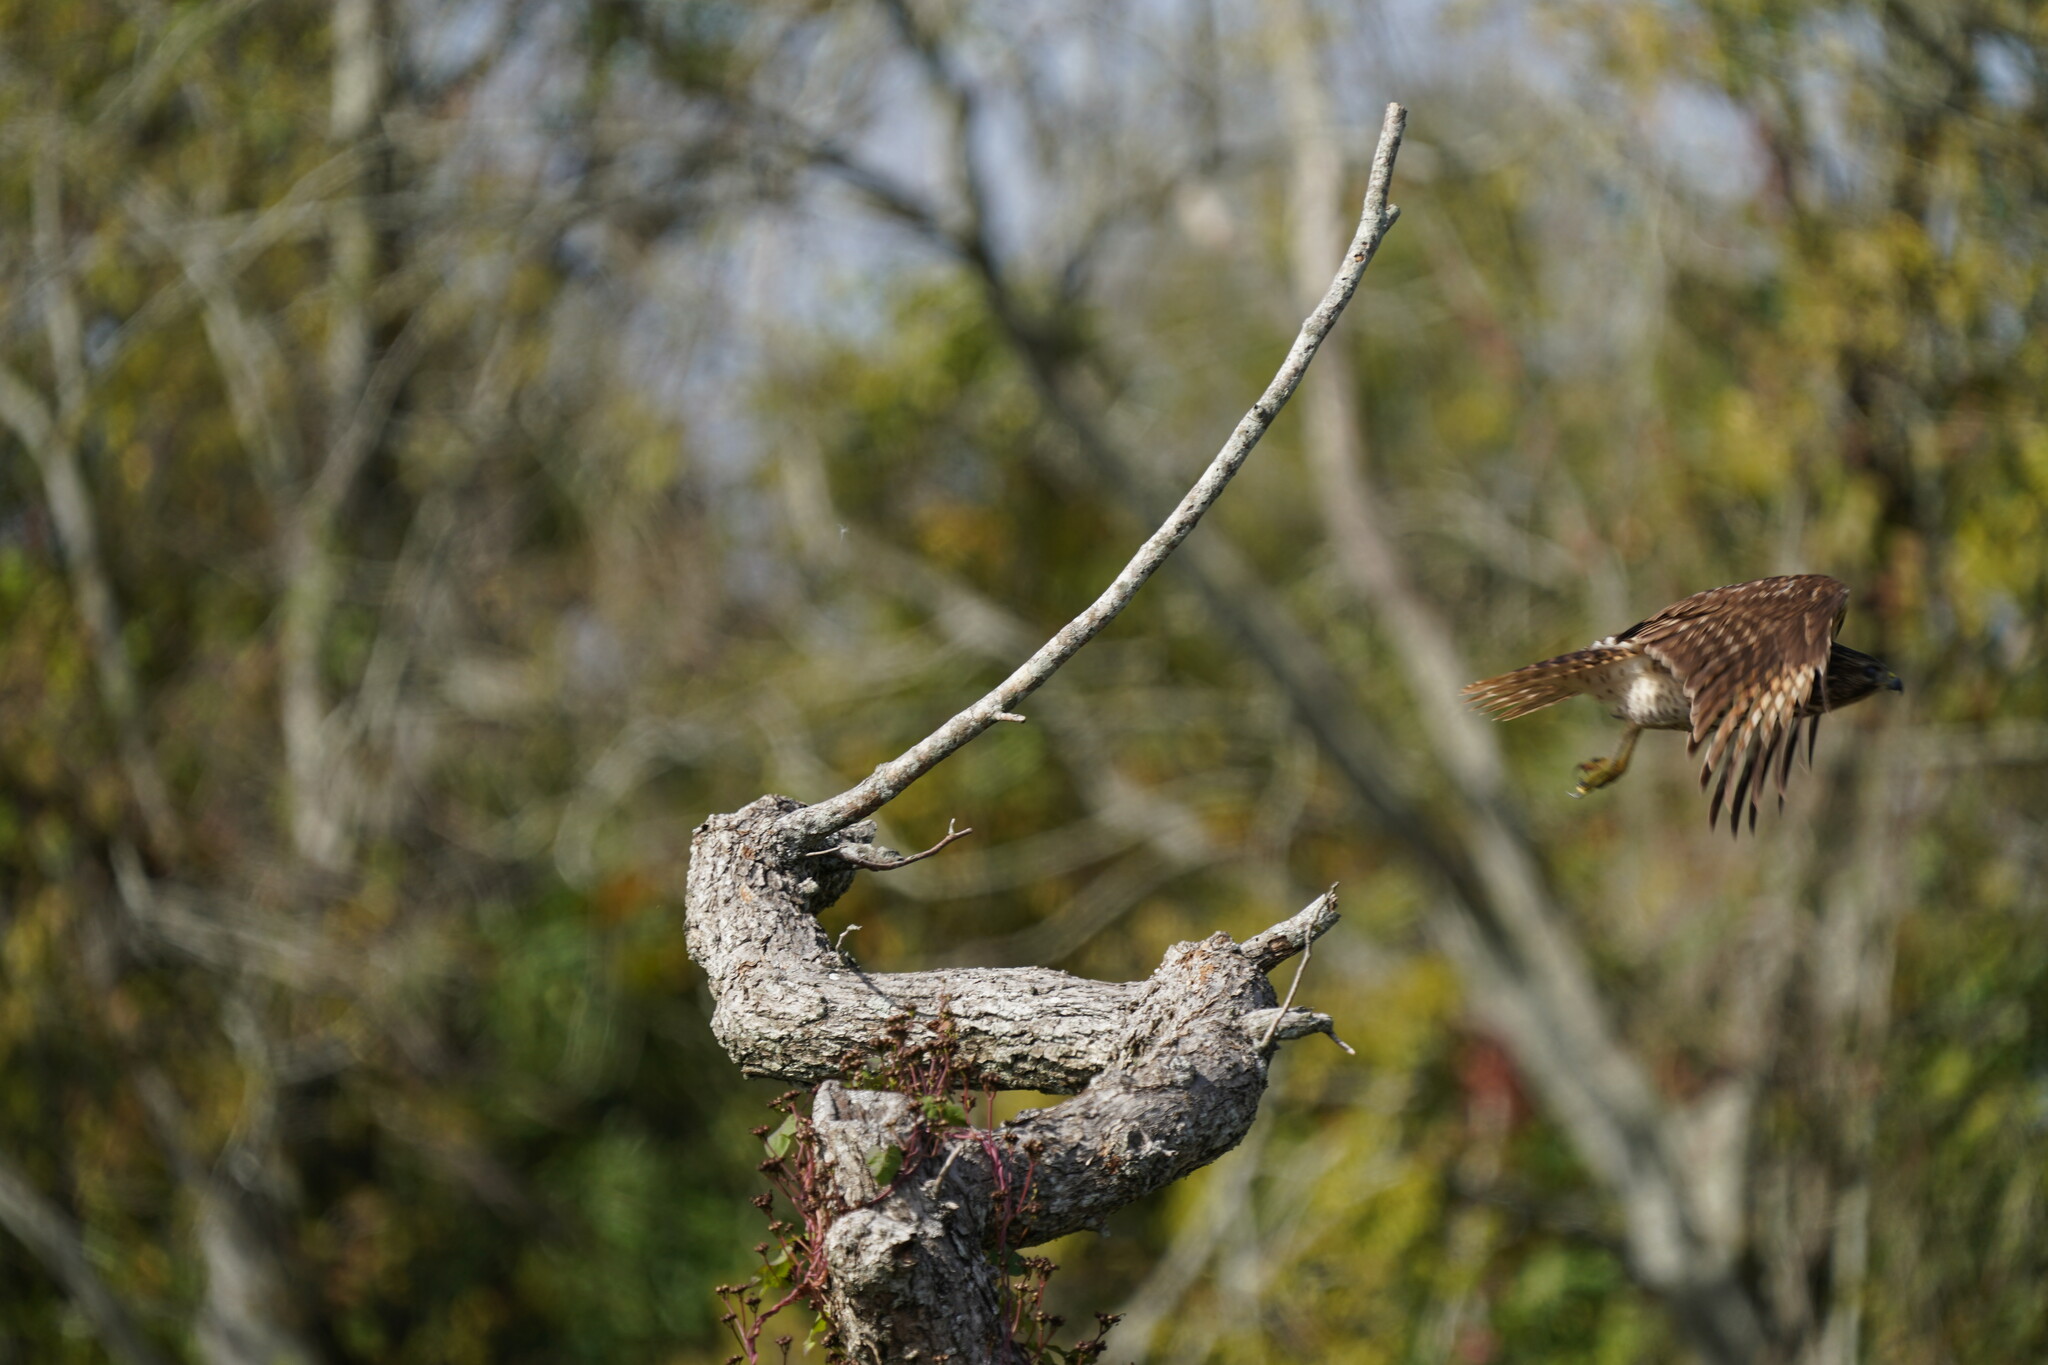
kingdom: Animalia
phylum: Chordata
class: Aves
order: Accipitriformes
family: Accipitridae
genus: Buteo
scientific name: Buteo lineatus
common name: Red-shouldered hawk
